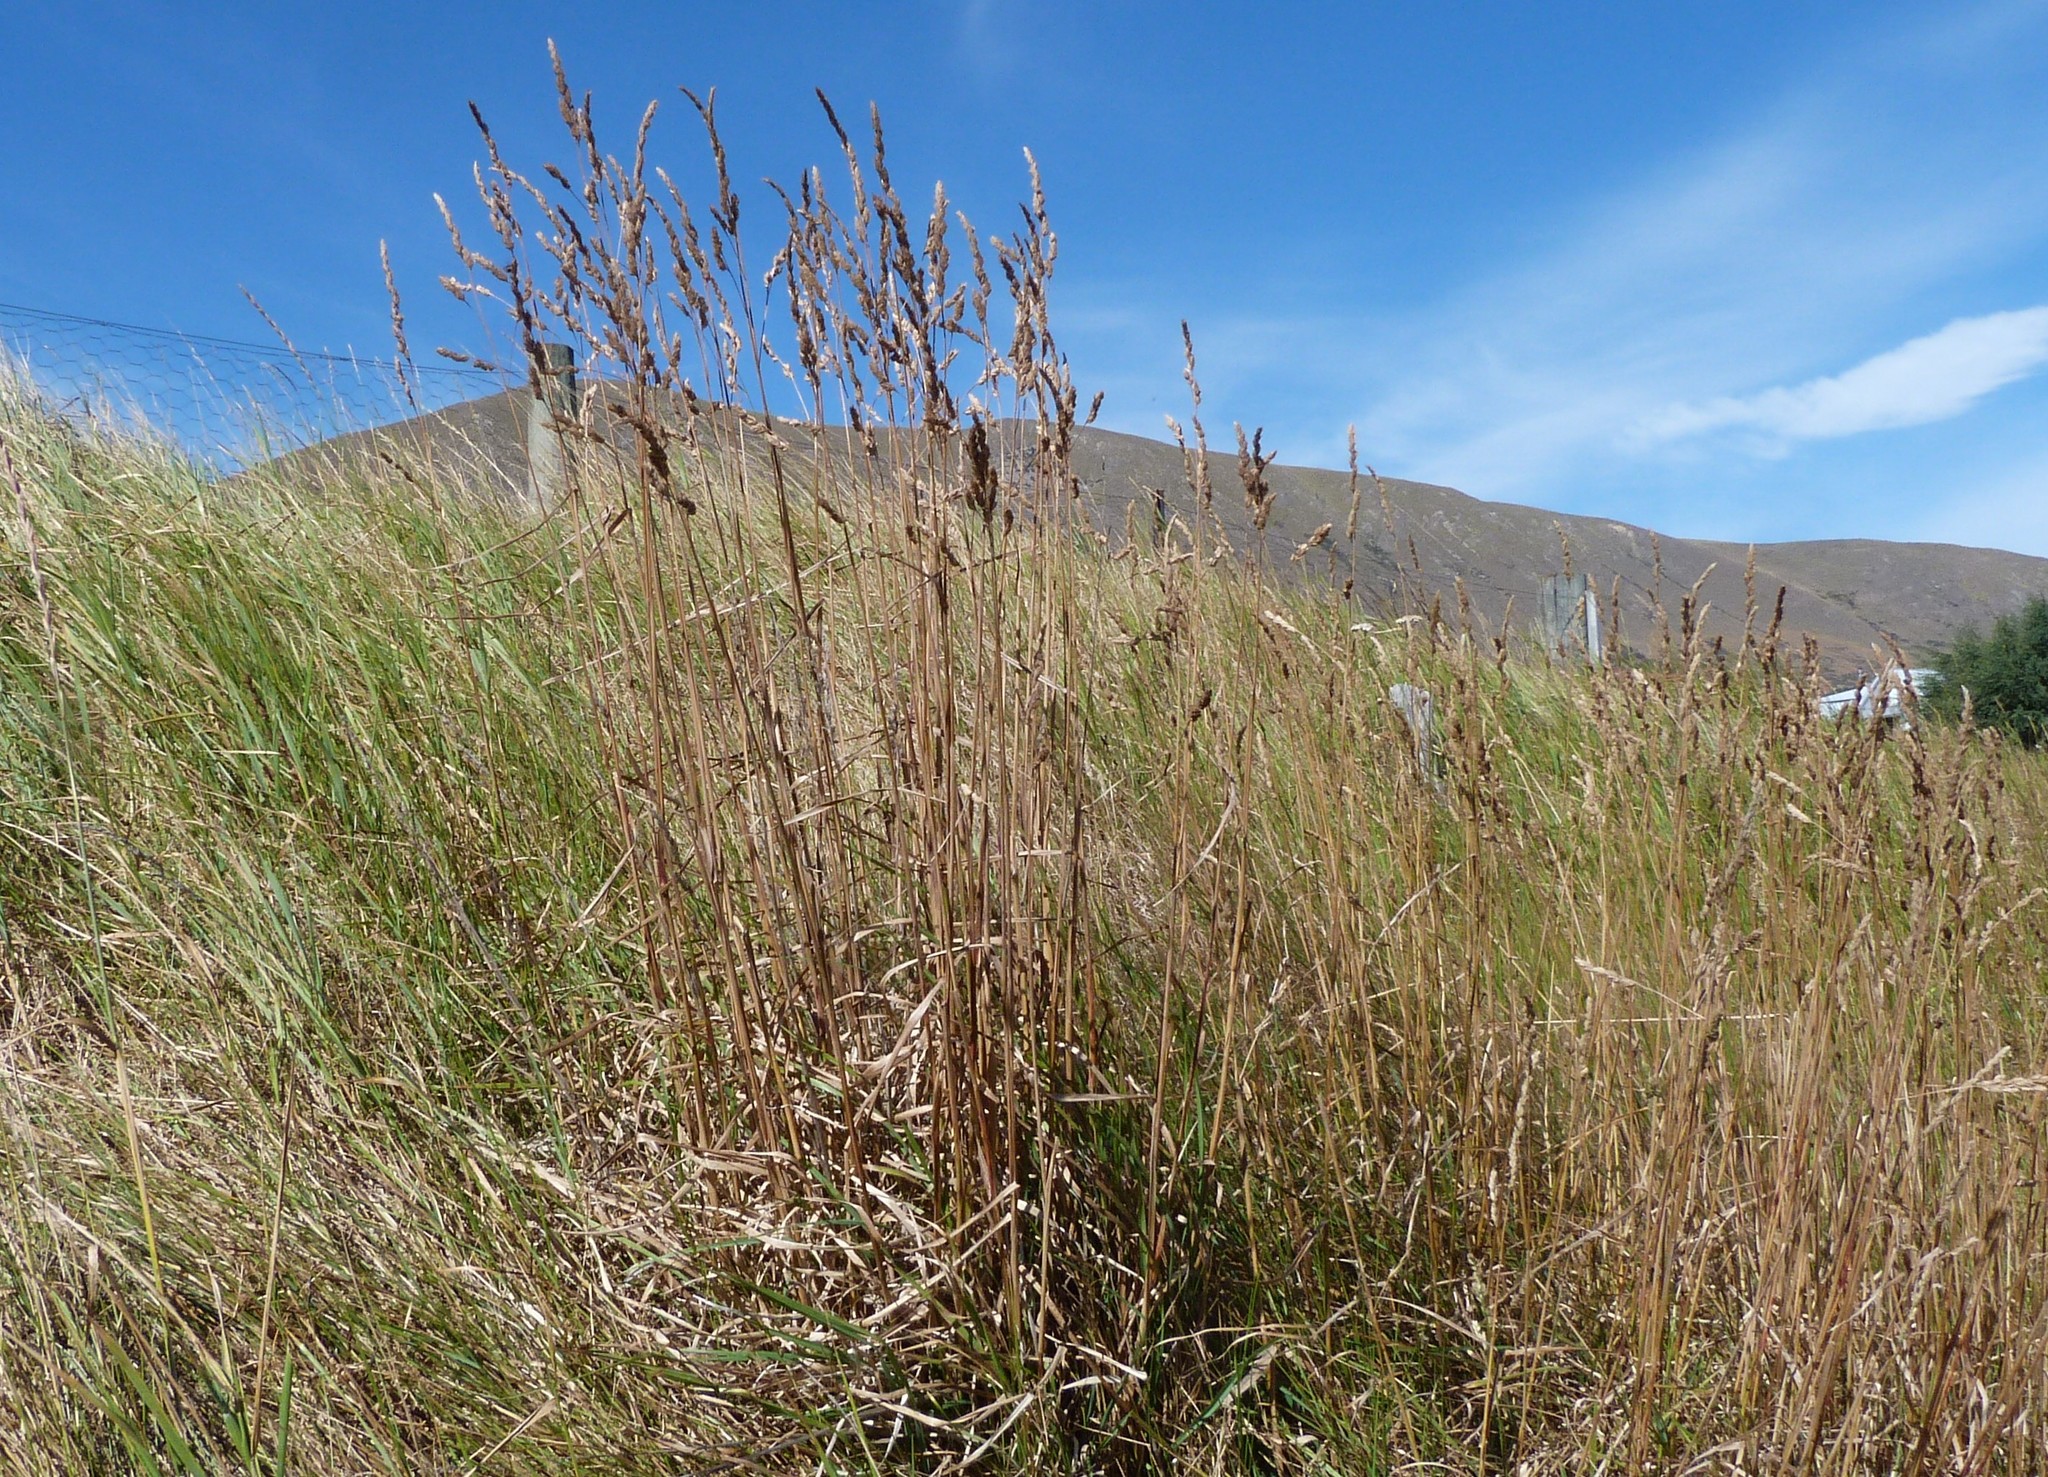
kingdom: Plantae
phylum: Tracheophyta
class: Liliopsida
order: Poales
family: Poaceae
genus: Dactylis
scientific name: Dactylis glomerata
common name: Orchardgrass
